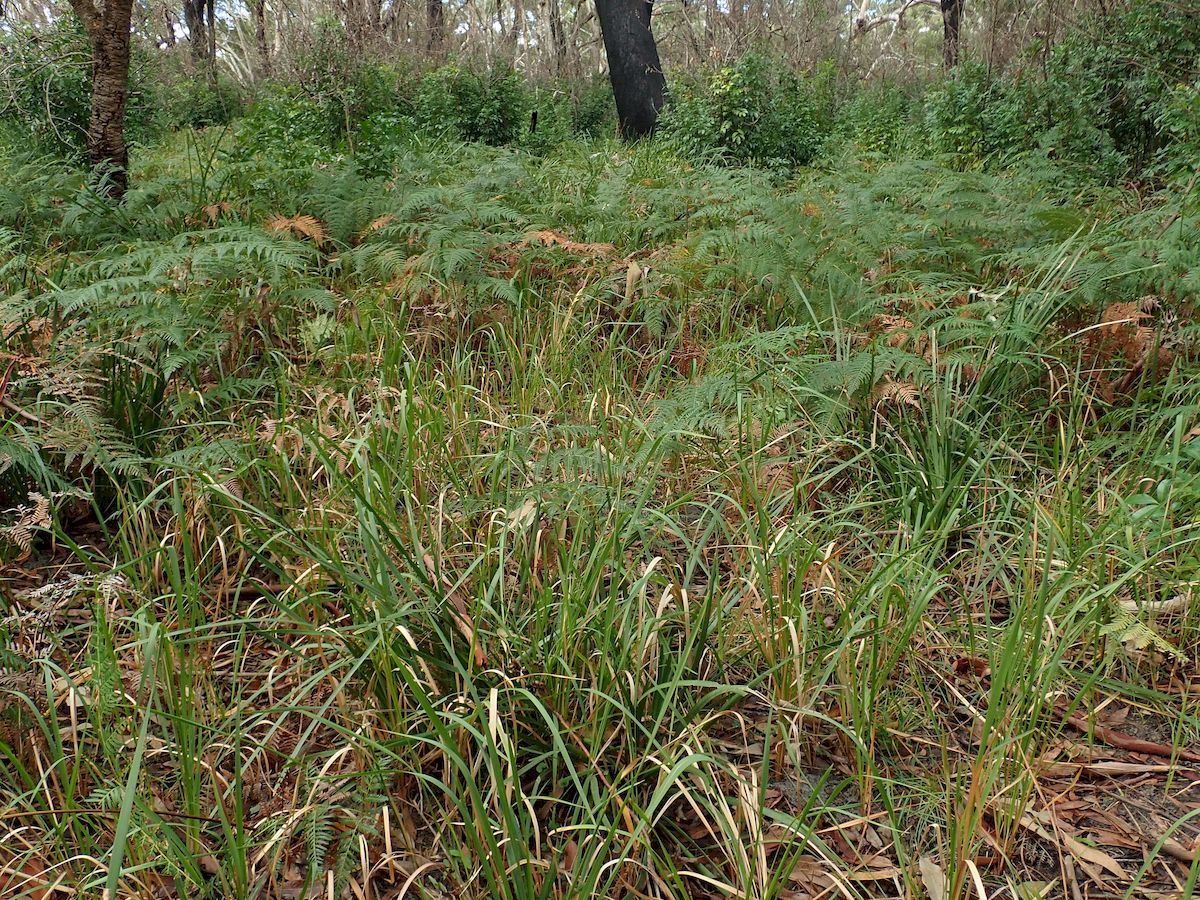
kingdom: Plantae
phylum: Tracheophyta
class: Liliopsida
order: Poales
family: Poaceae
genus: Imperata
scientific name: Imperata cylindrica
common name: Cogongrass
